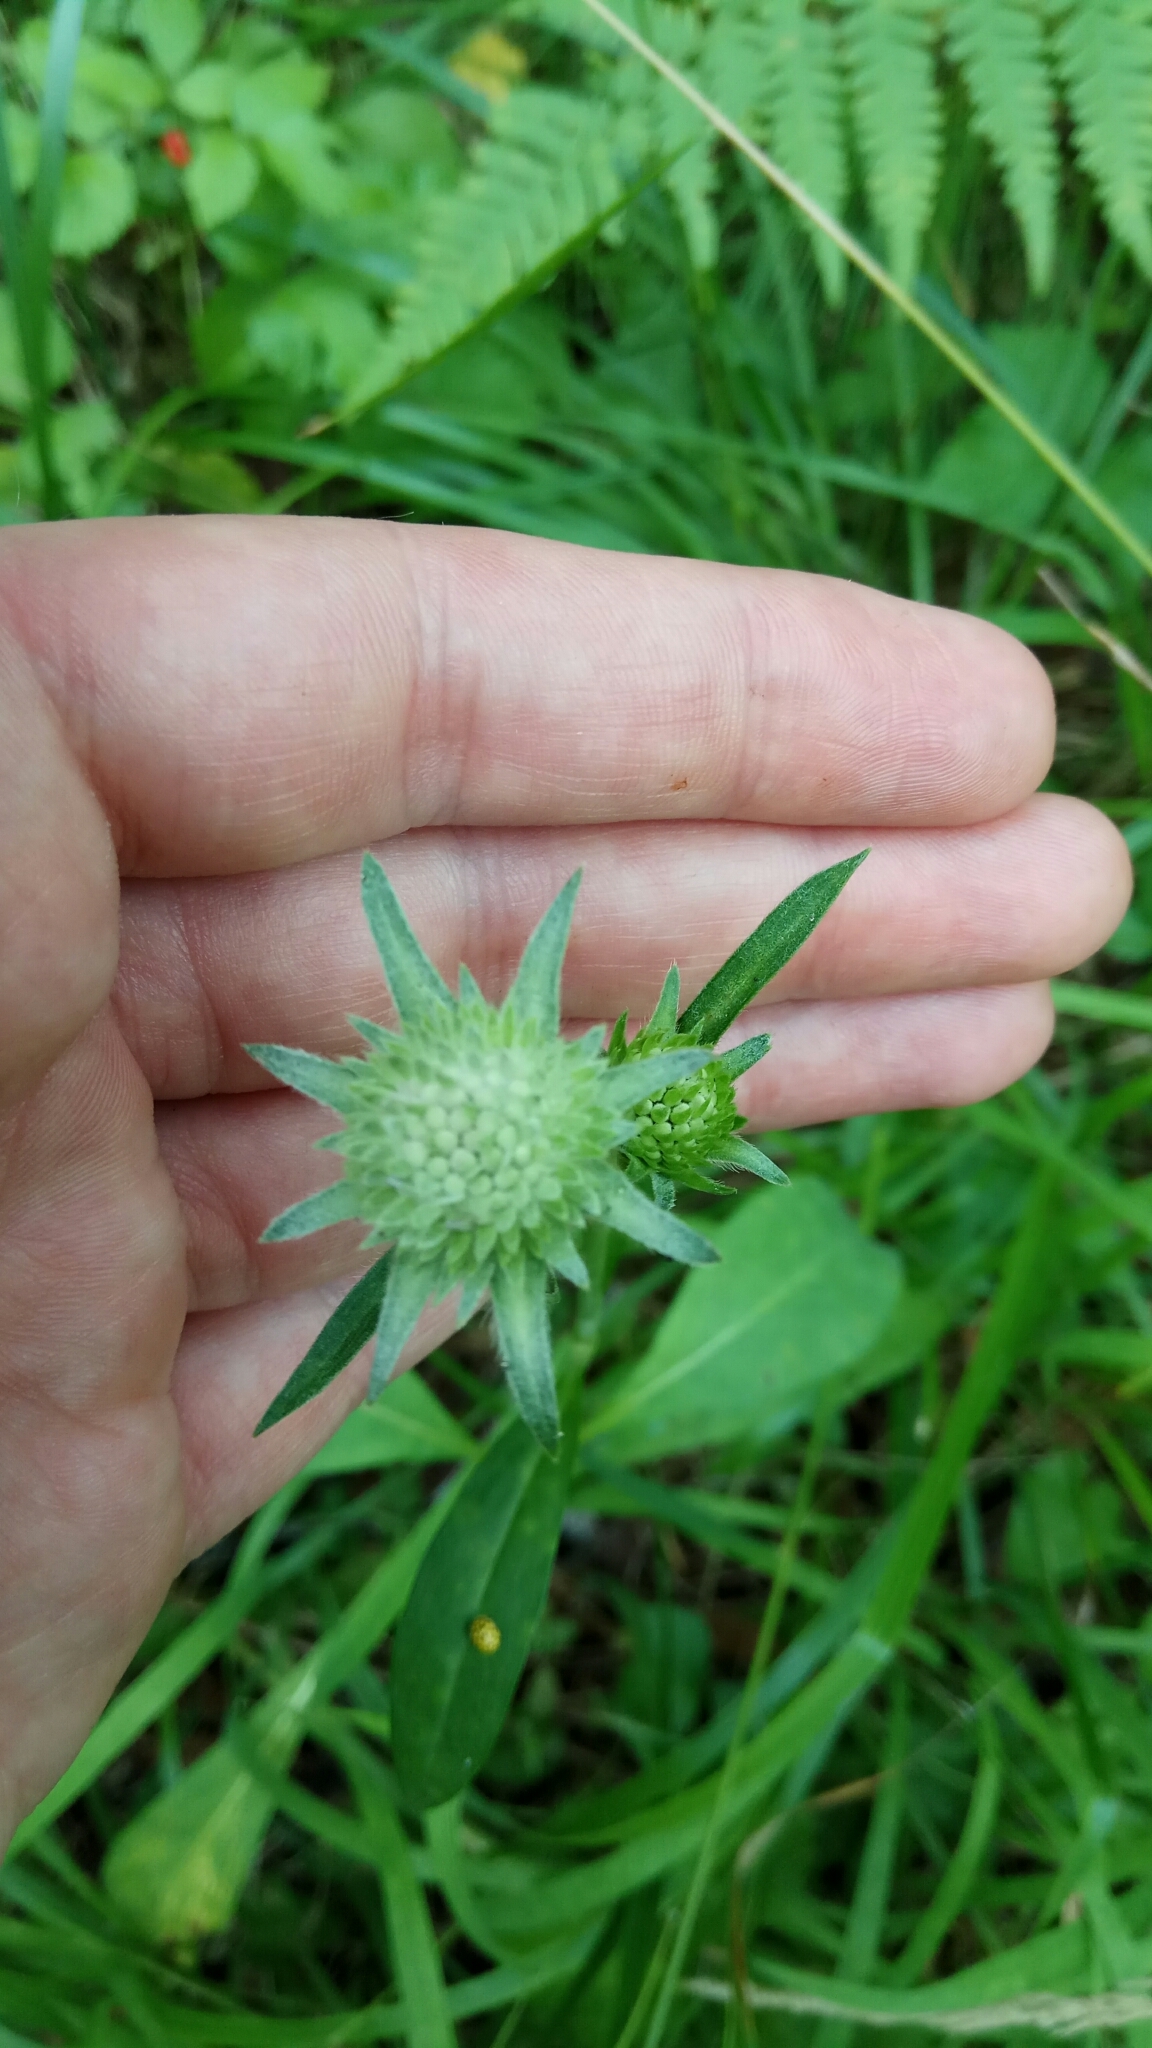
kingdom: Plantae
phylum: Tracheophyta
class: Magnoliopsida
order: Dipsacales
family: Caprifoliaceae
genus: Succisa
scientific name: Succisa pratensis
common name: Devil's-bit
